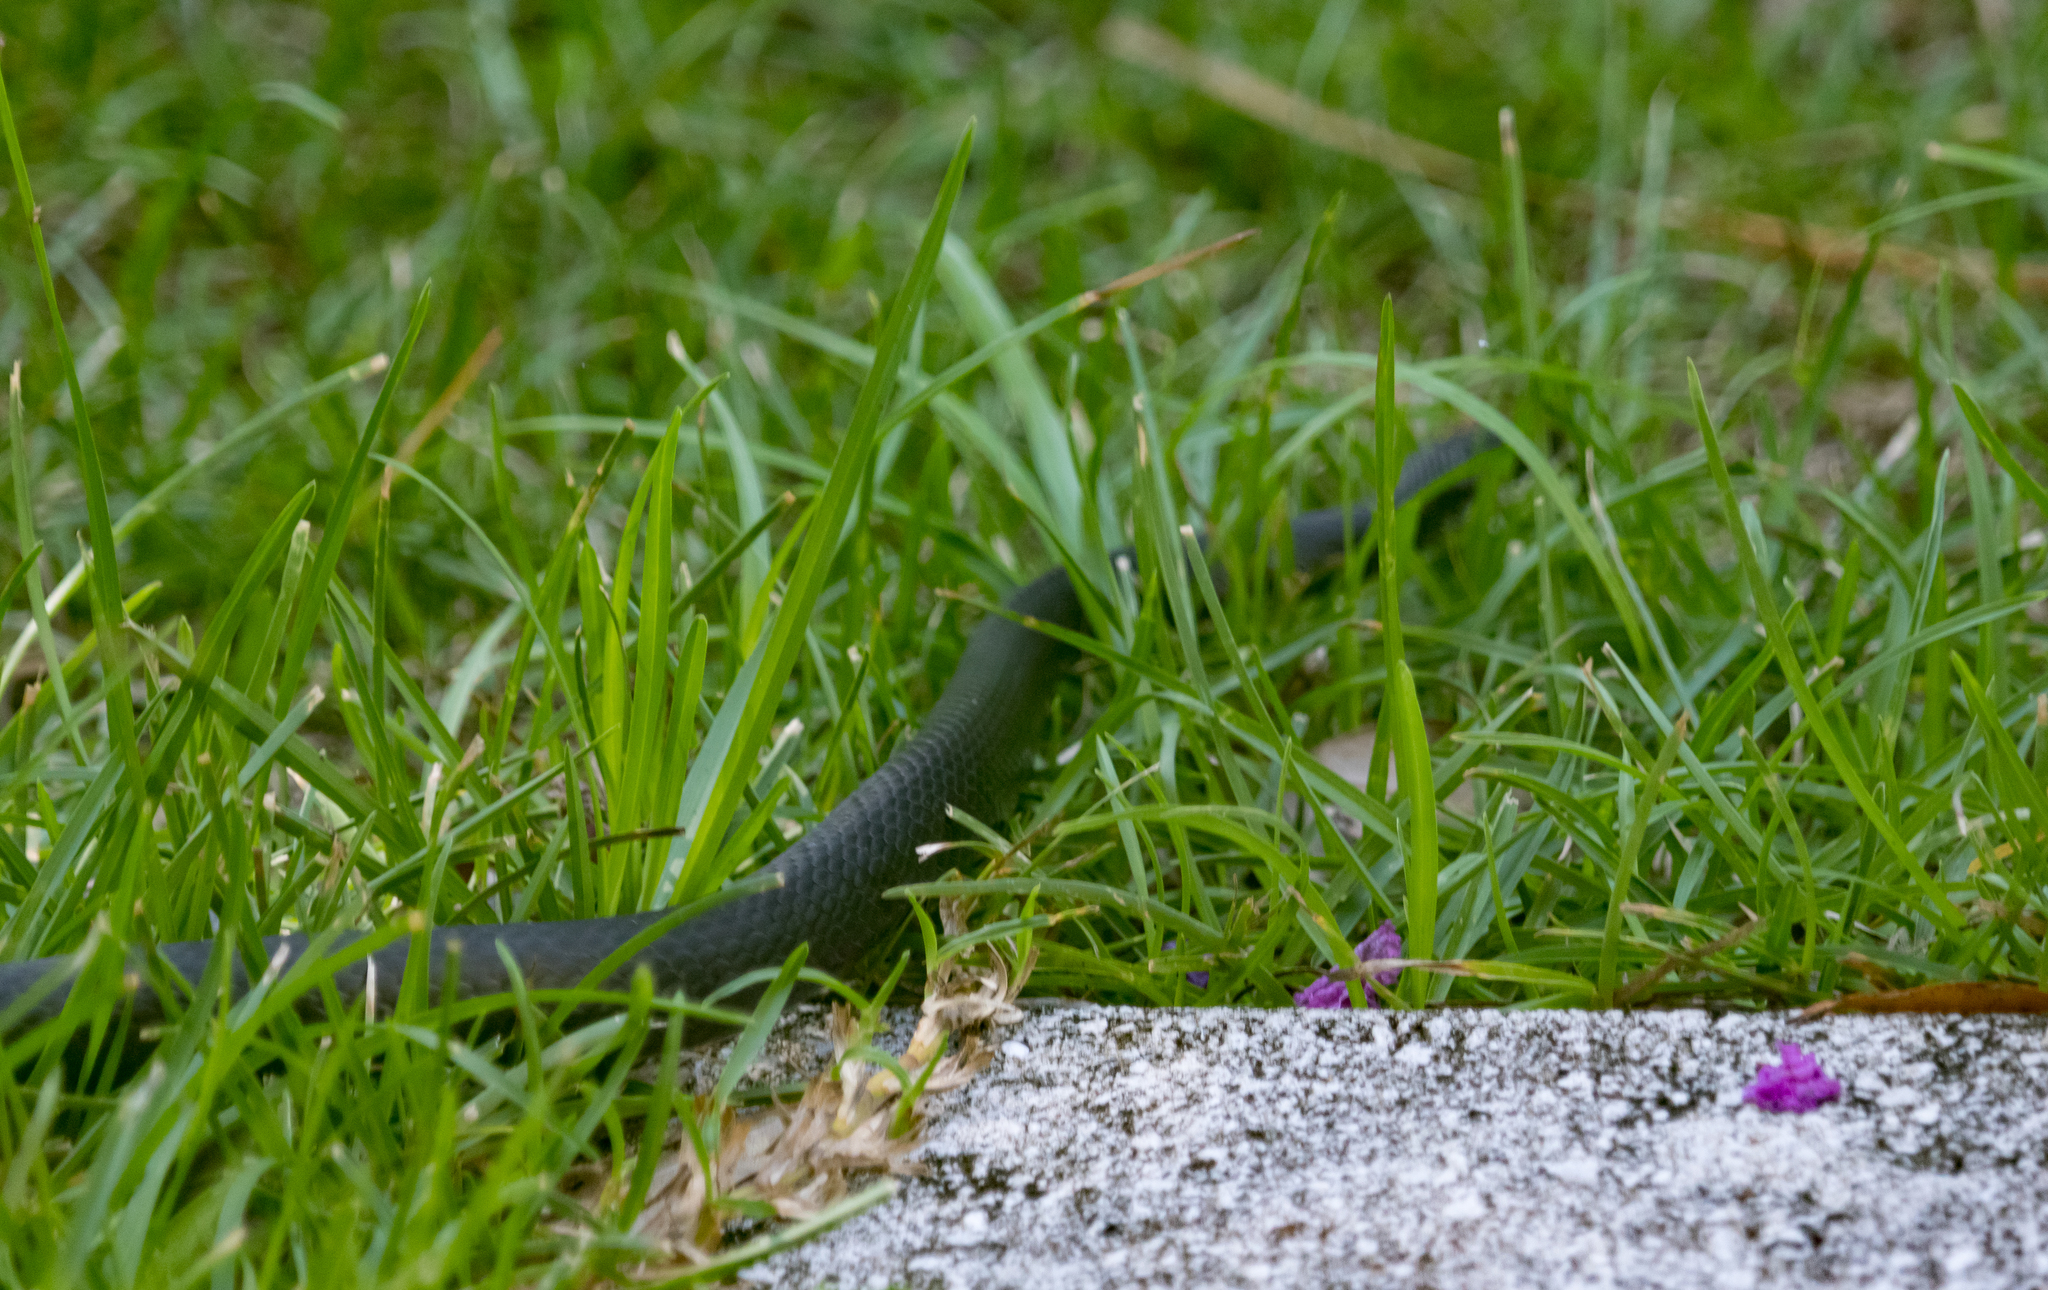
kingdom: Animalia
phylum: Chordata
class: Squamata
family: Colubridae
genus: Coluber
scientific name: Coluber constrictor
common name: Eastern racer
